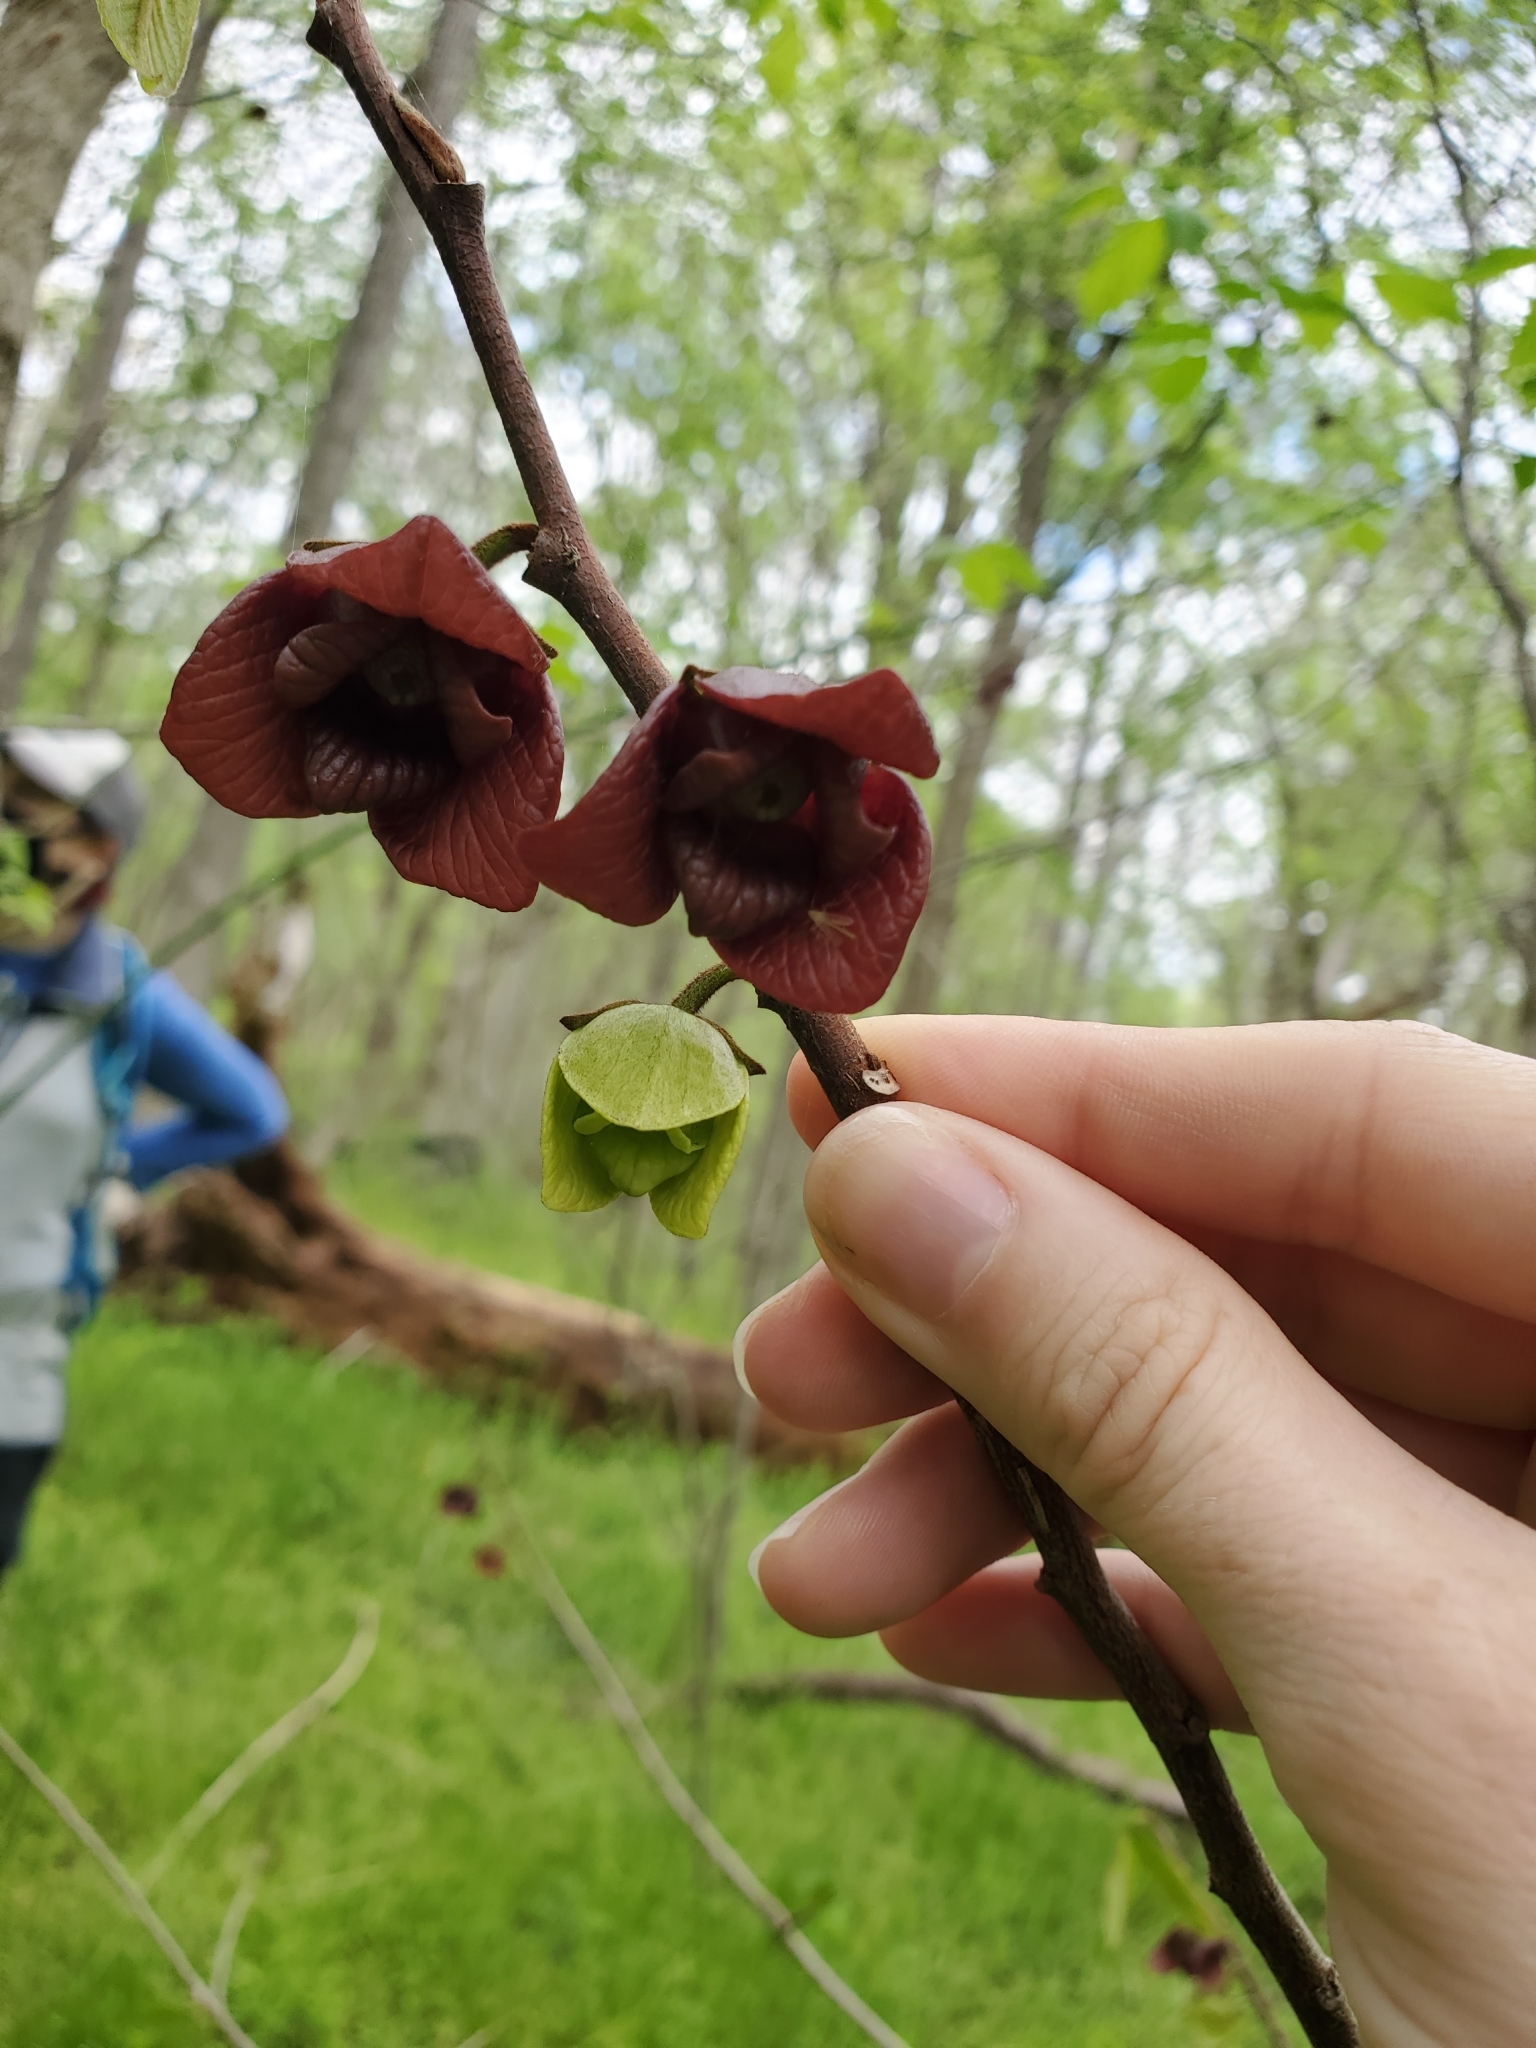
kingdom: Plantae
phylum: Tracheophyta
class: Magnoliopsida
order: Magnoliales
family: Annonaceae
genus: Asimina
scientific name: Asimina triloba
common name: Dog-banana
